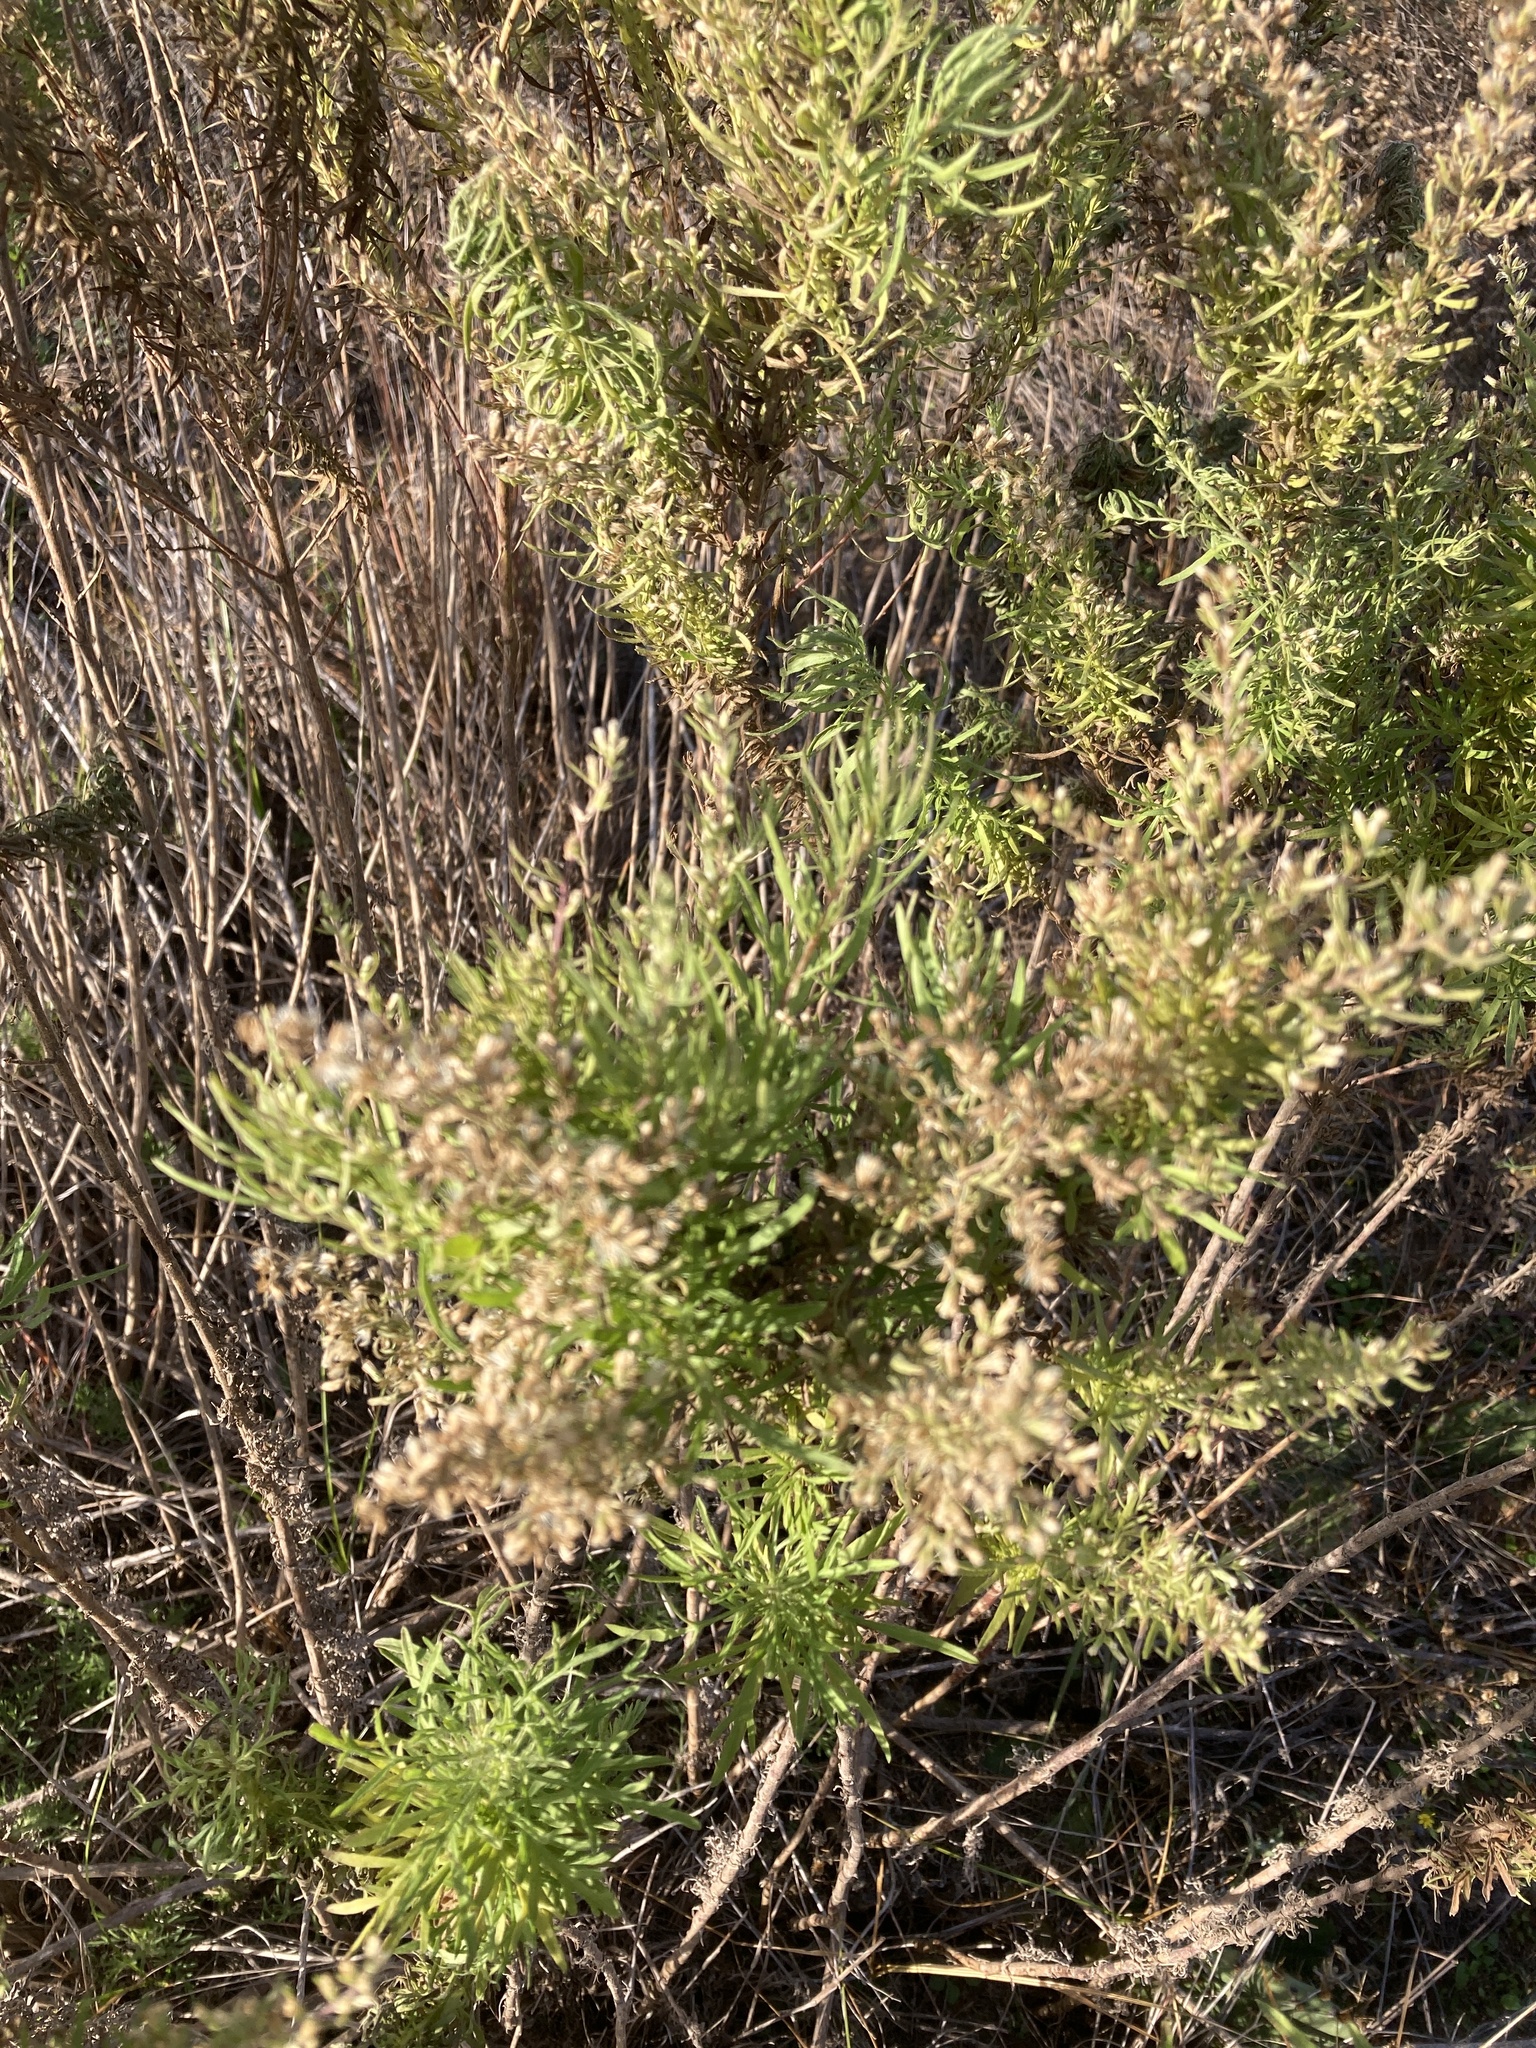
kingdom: Plantae
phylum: Tracheophyta
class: Magnoliopsida
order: Asterales
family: Asteraceae
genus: Eupatorium
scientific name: Eupatorium compositifolium
